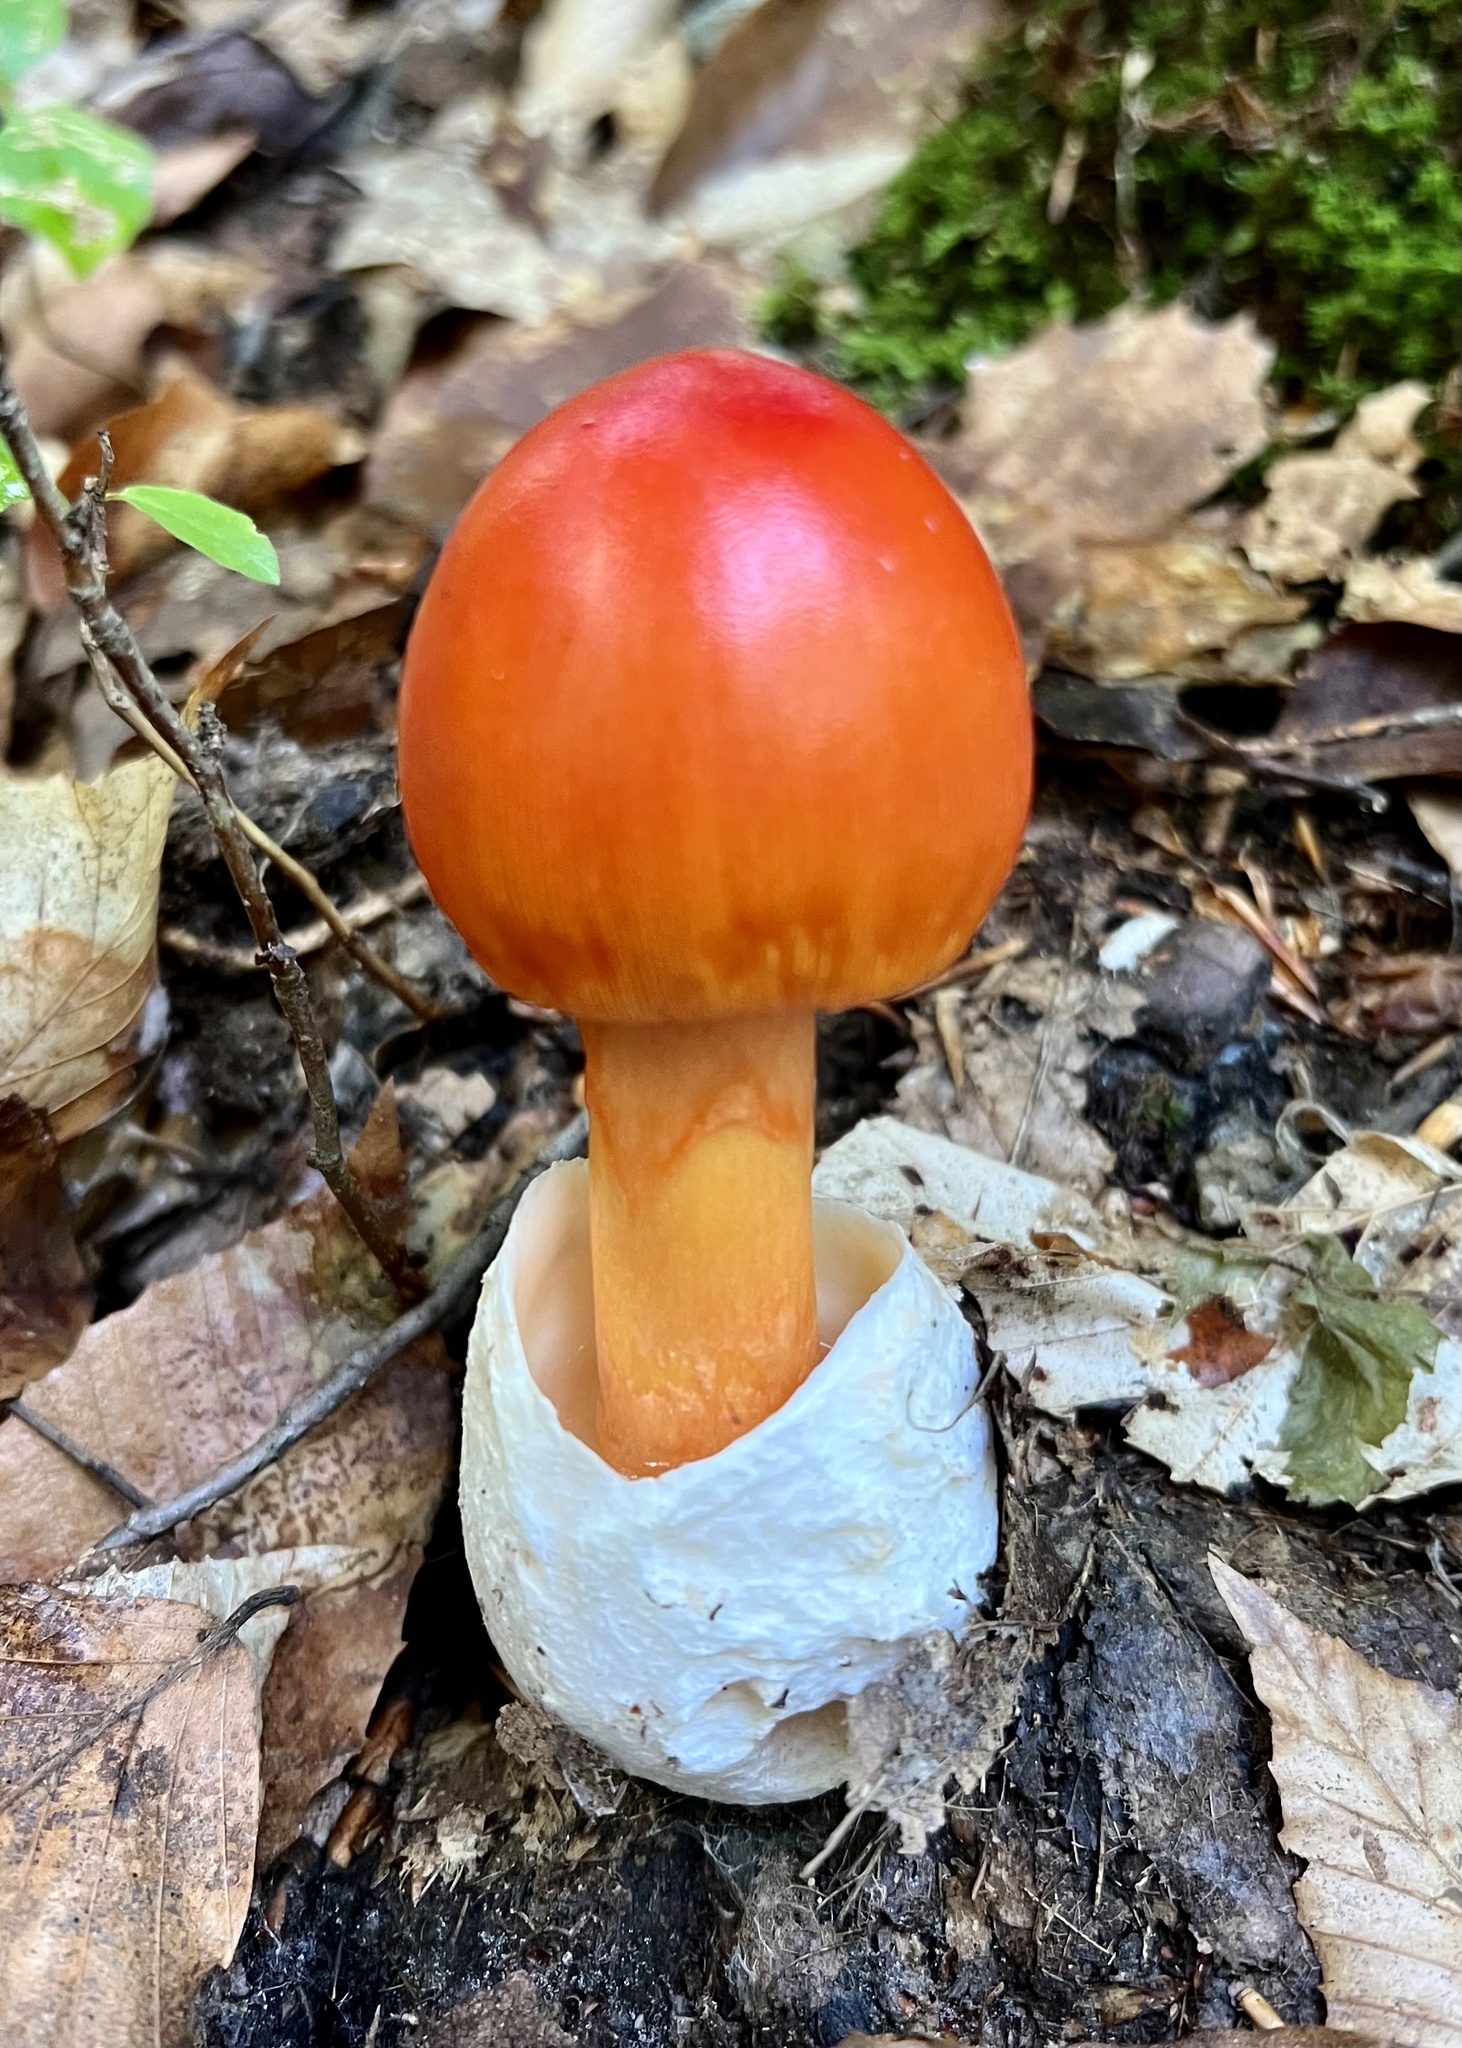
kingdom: Fungi
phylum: Basidiomycota
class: Agaricomycetes
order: Agaricales
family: Amanitaceae
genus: Amanita
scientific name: Amanita jacksonii
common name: Jackson's slender caesar
